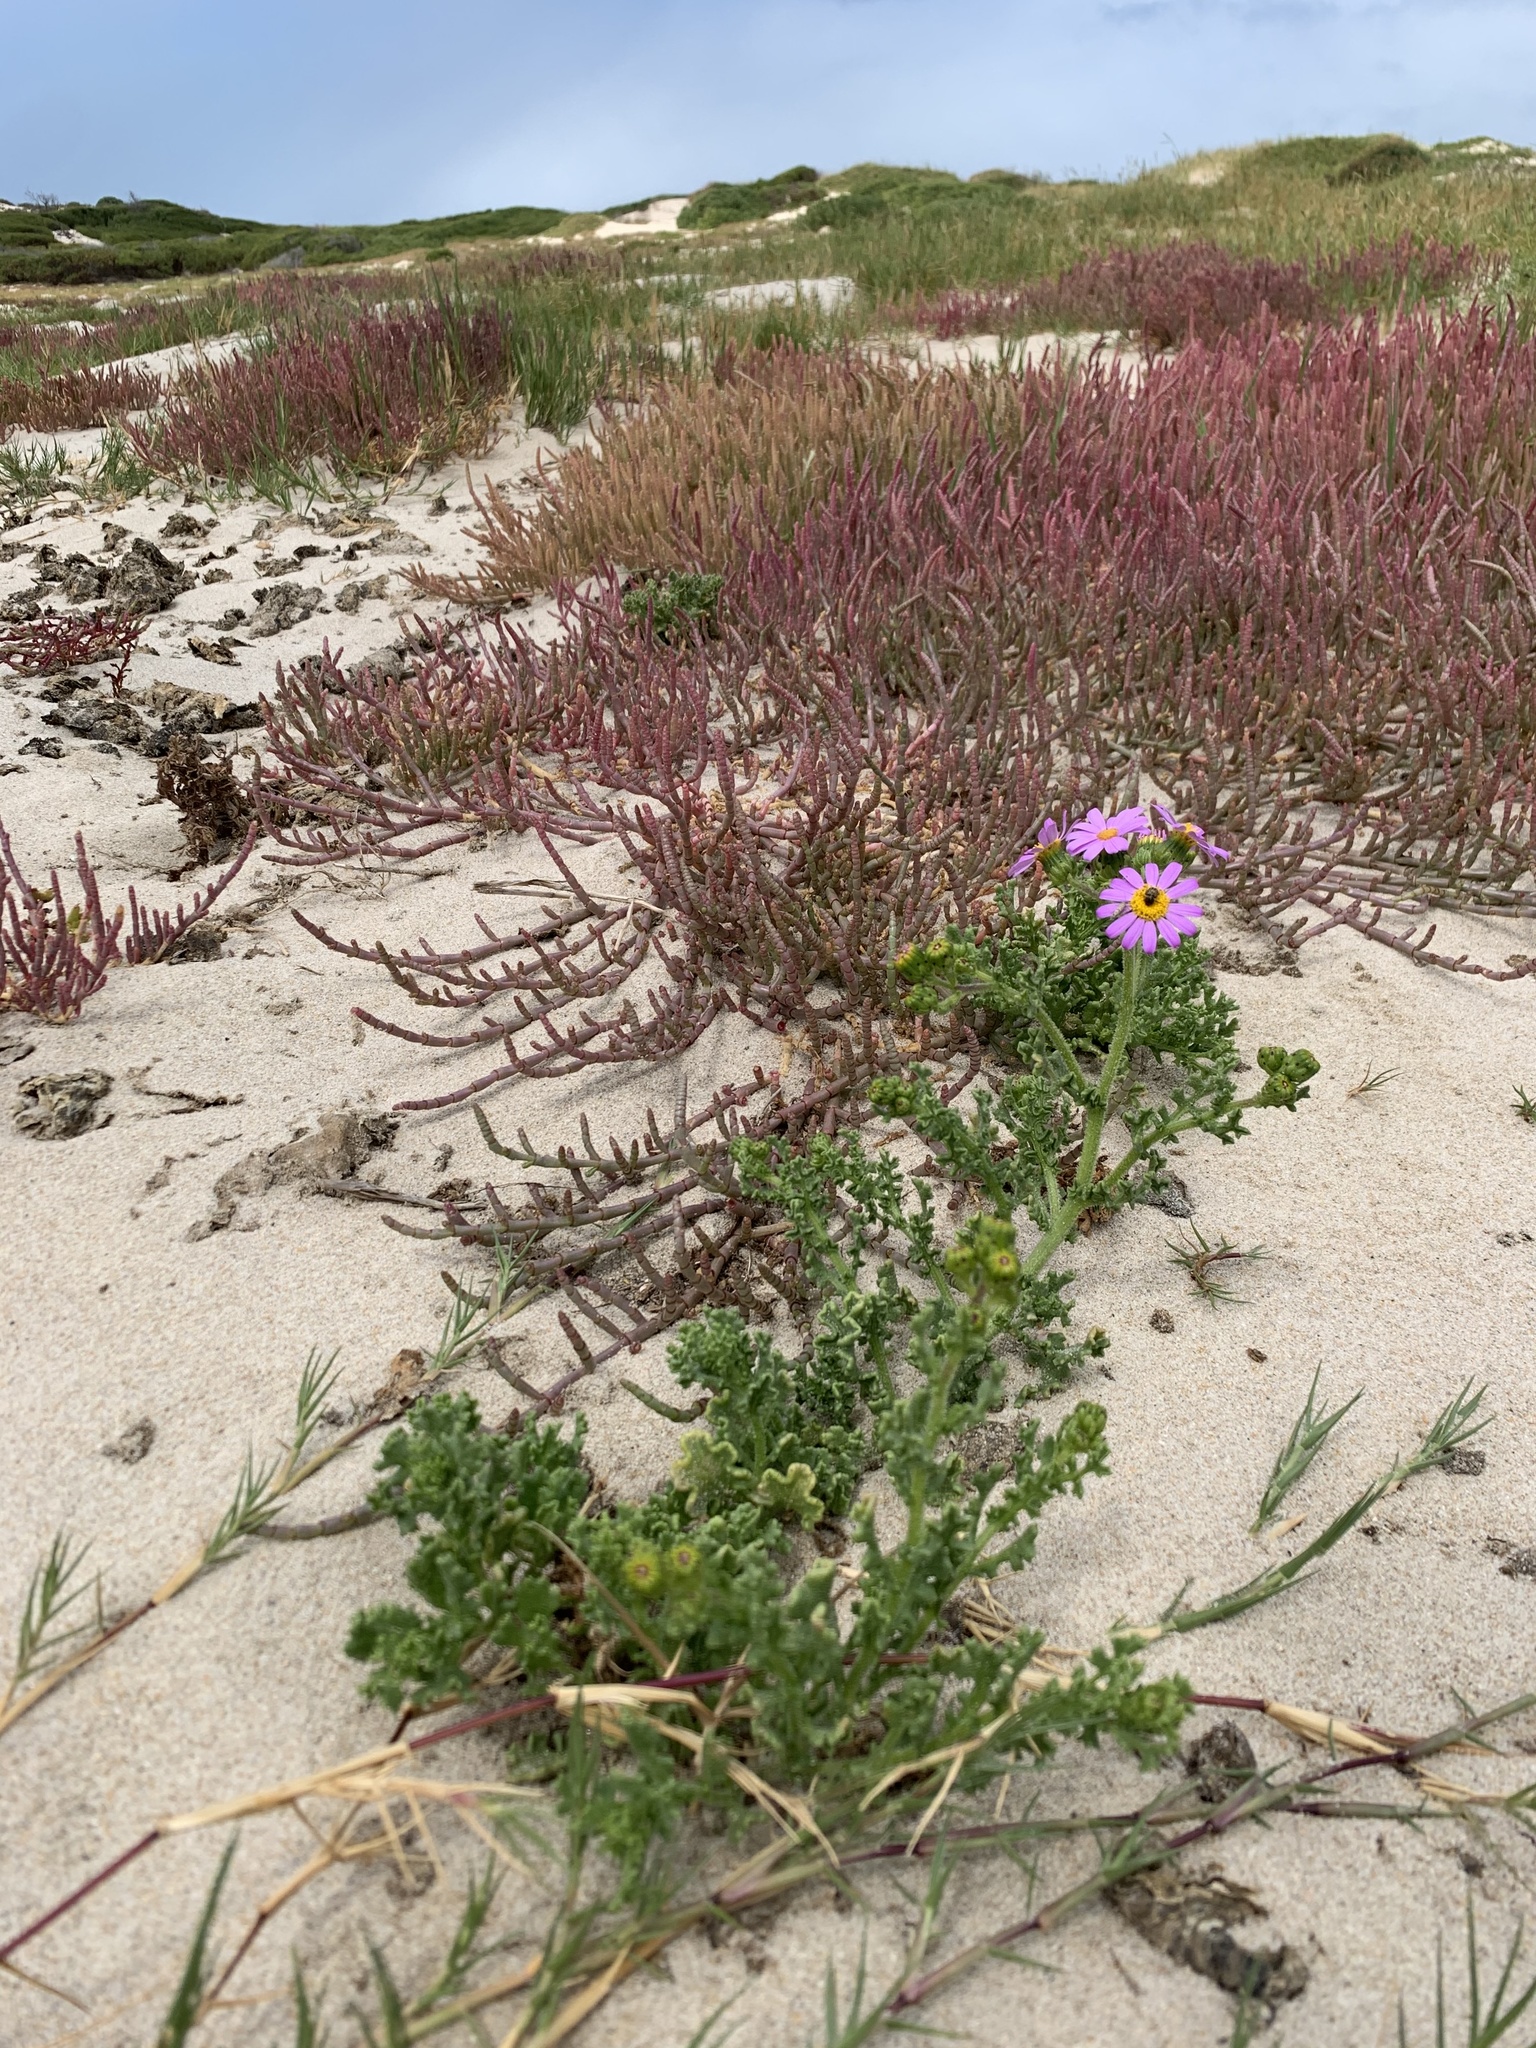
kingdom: Plantae
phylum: Tracheophyta
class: Magnoliopsida
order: Asterales
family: Asteraceae
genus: Senecio
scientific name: Senecio elegans
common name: Purple groundsel
